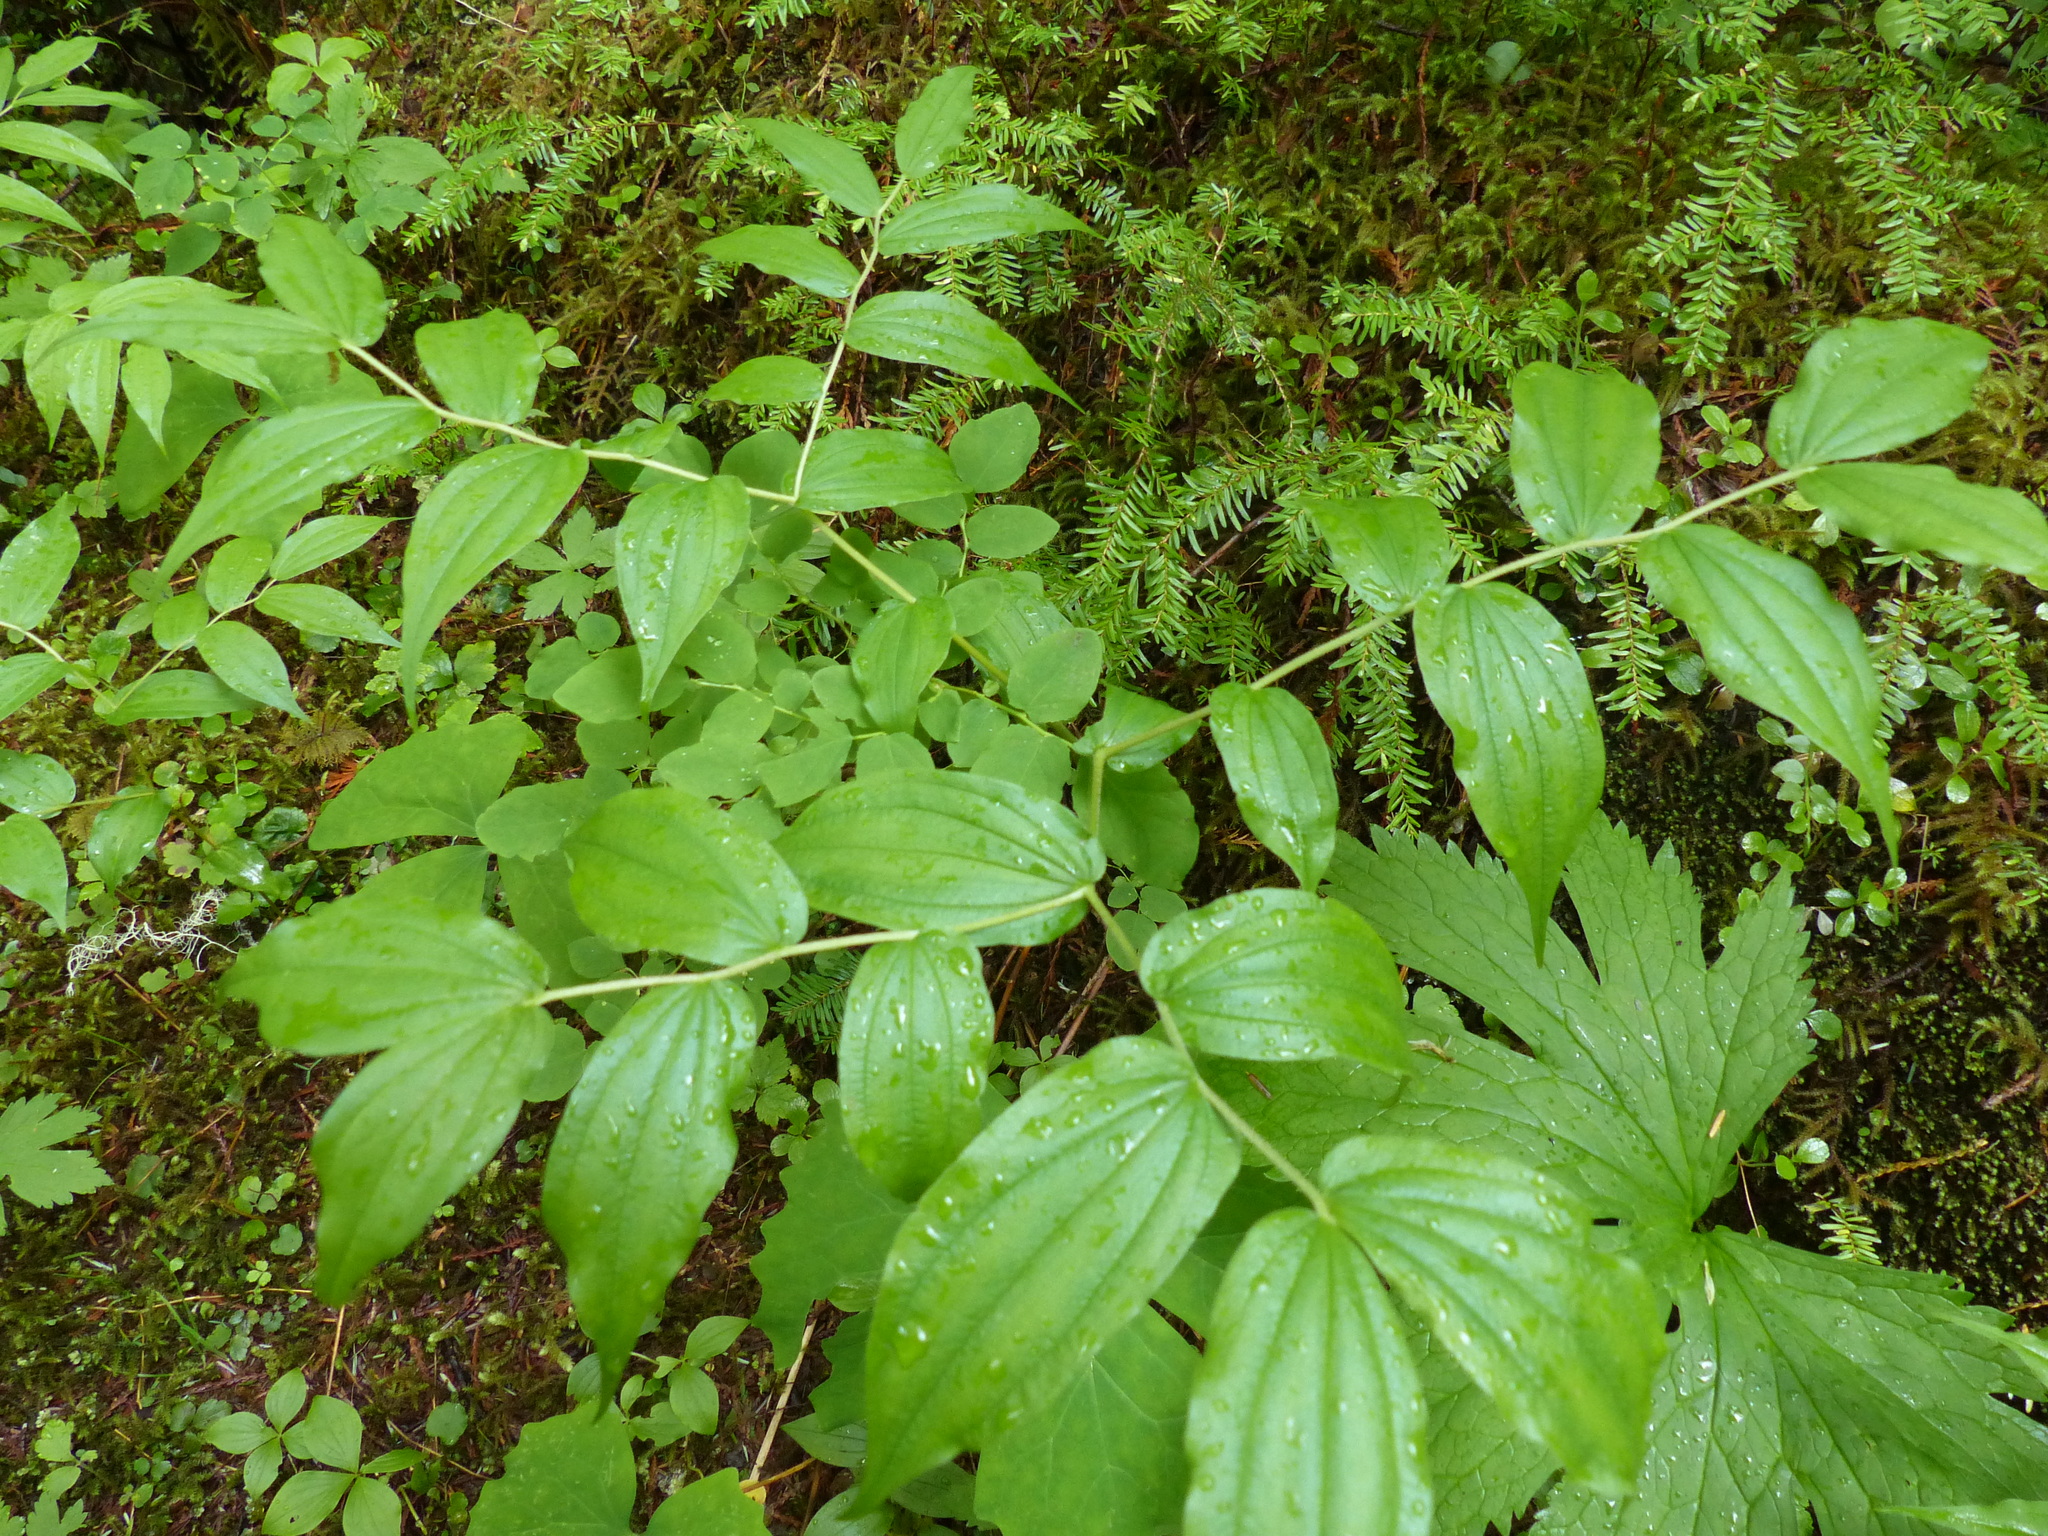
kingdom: Plantae
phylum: Tracheophyta
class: Liliopsida
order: Liliales
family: Liliaceae
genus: Prosartes
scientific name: Prosartes hookeri
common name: Fairy-bells
